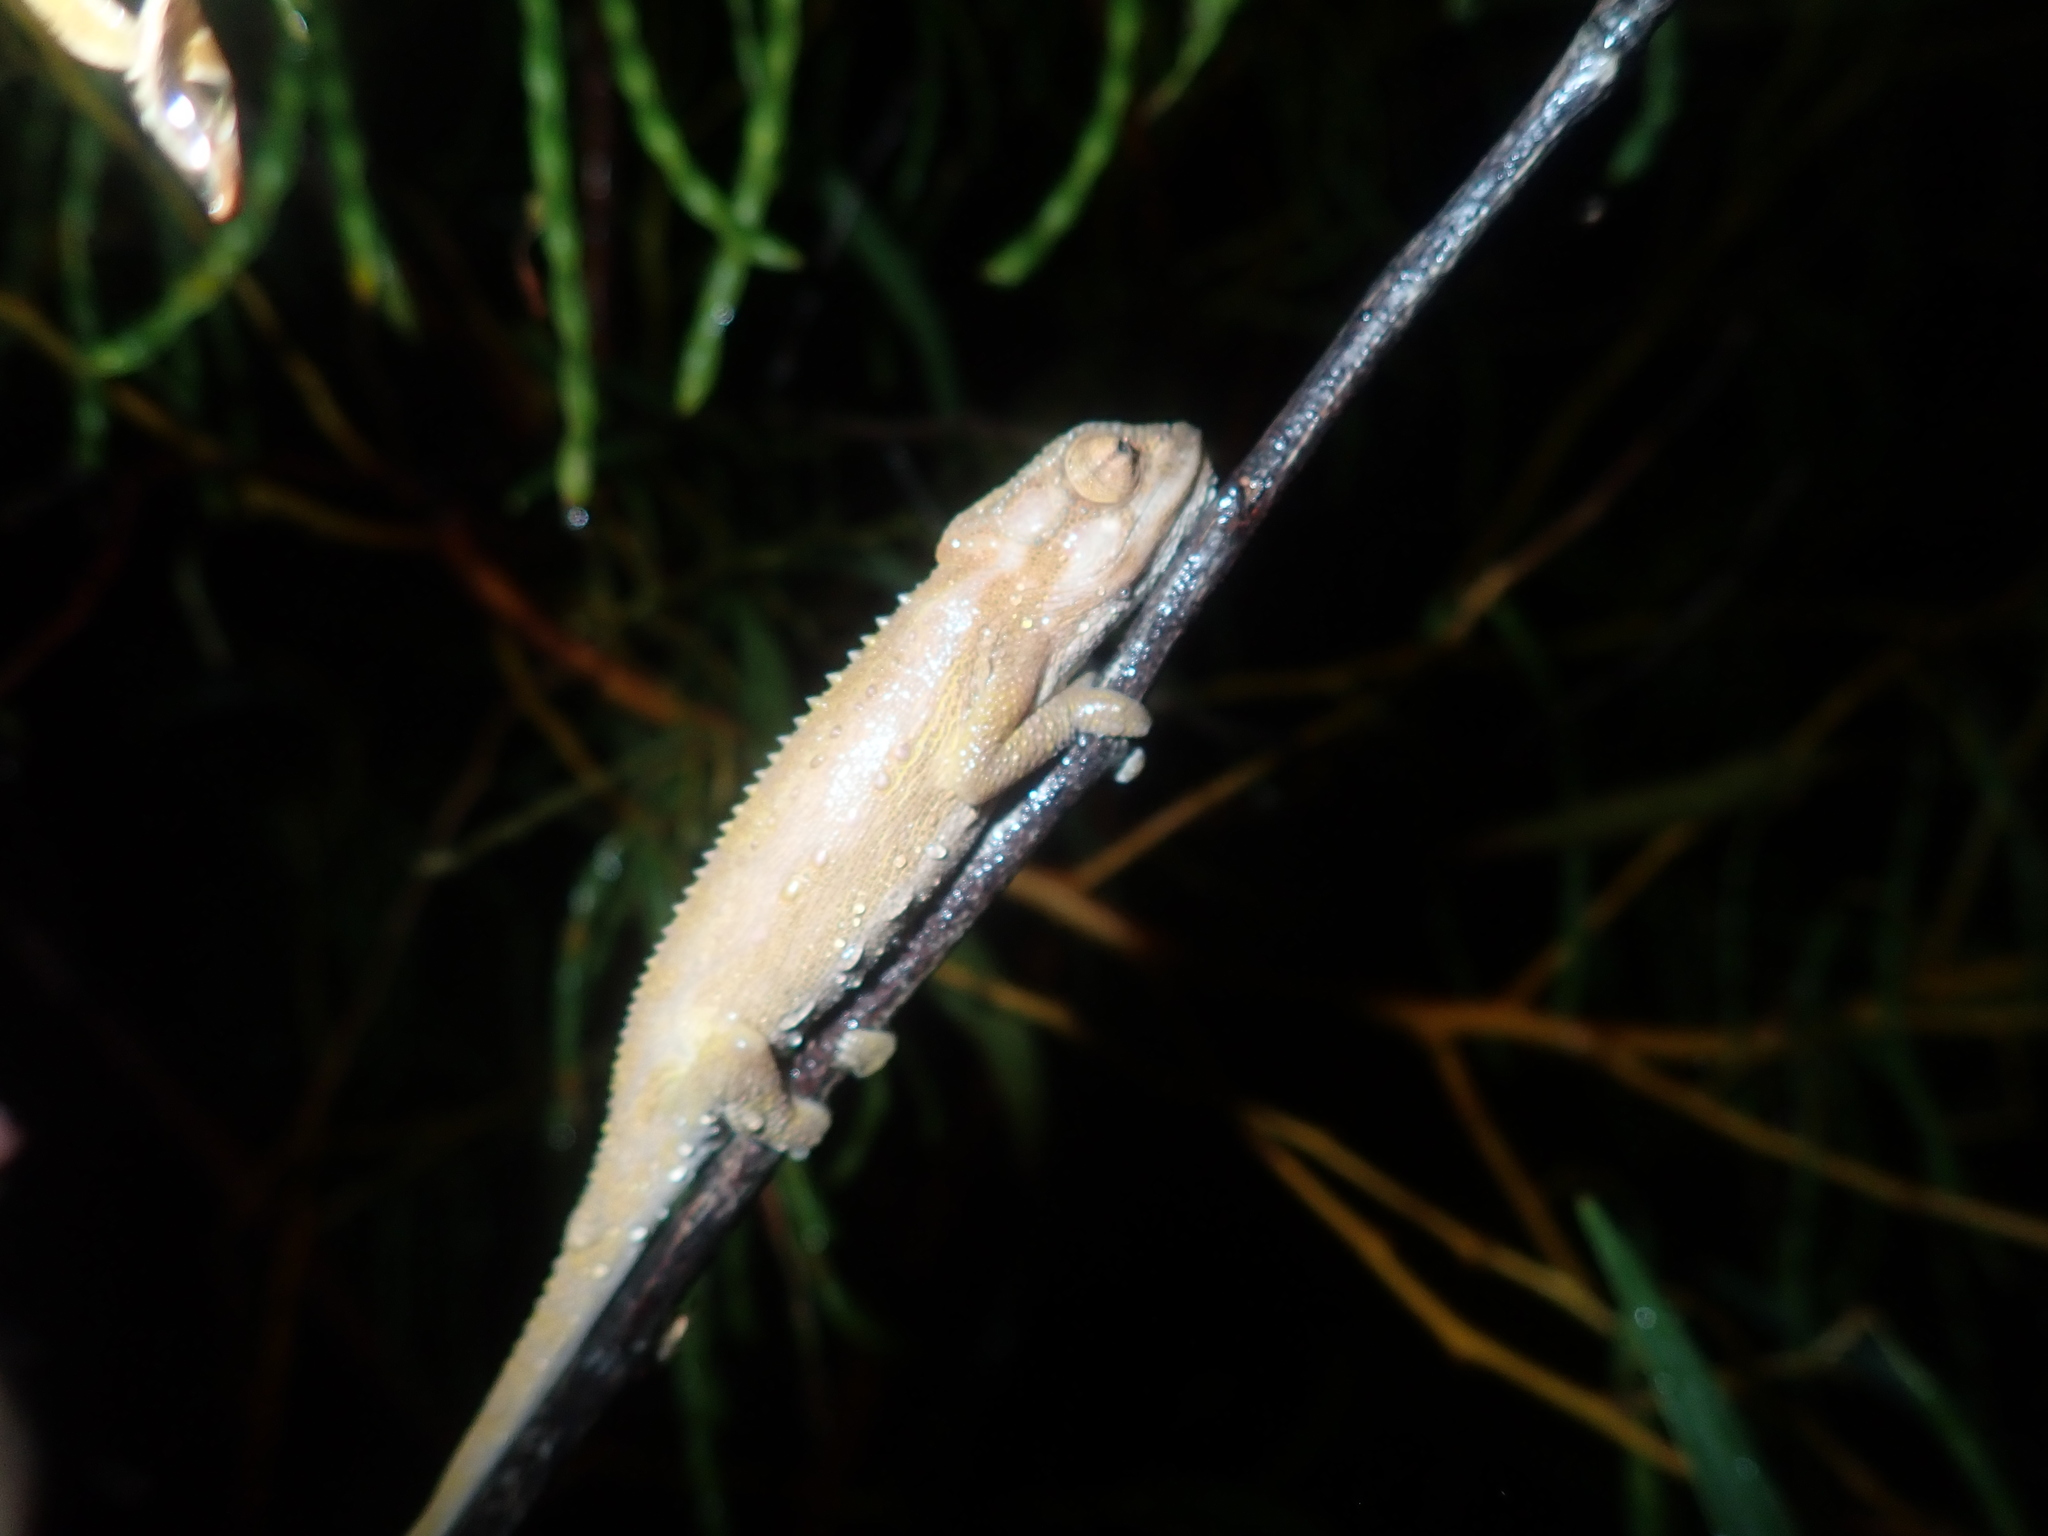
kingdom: Animalia
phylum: Chordata
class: Squamata
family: Chamaeleonidae
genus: Bradypodion
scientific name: Bradypodion pumilum
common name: Cape dwarf chameleon
